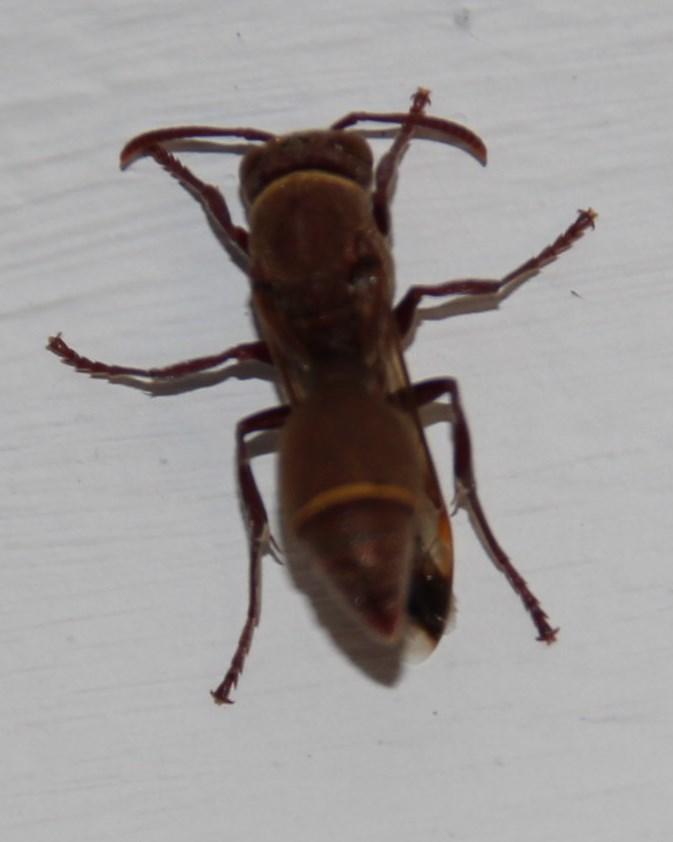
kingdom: Animalia
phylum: Arthropoda
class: Insecta
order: Hymenoptera
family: Vespidae
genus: Ropalidia
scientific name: Ropalidia distigma
